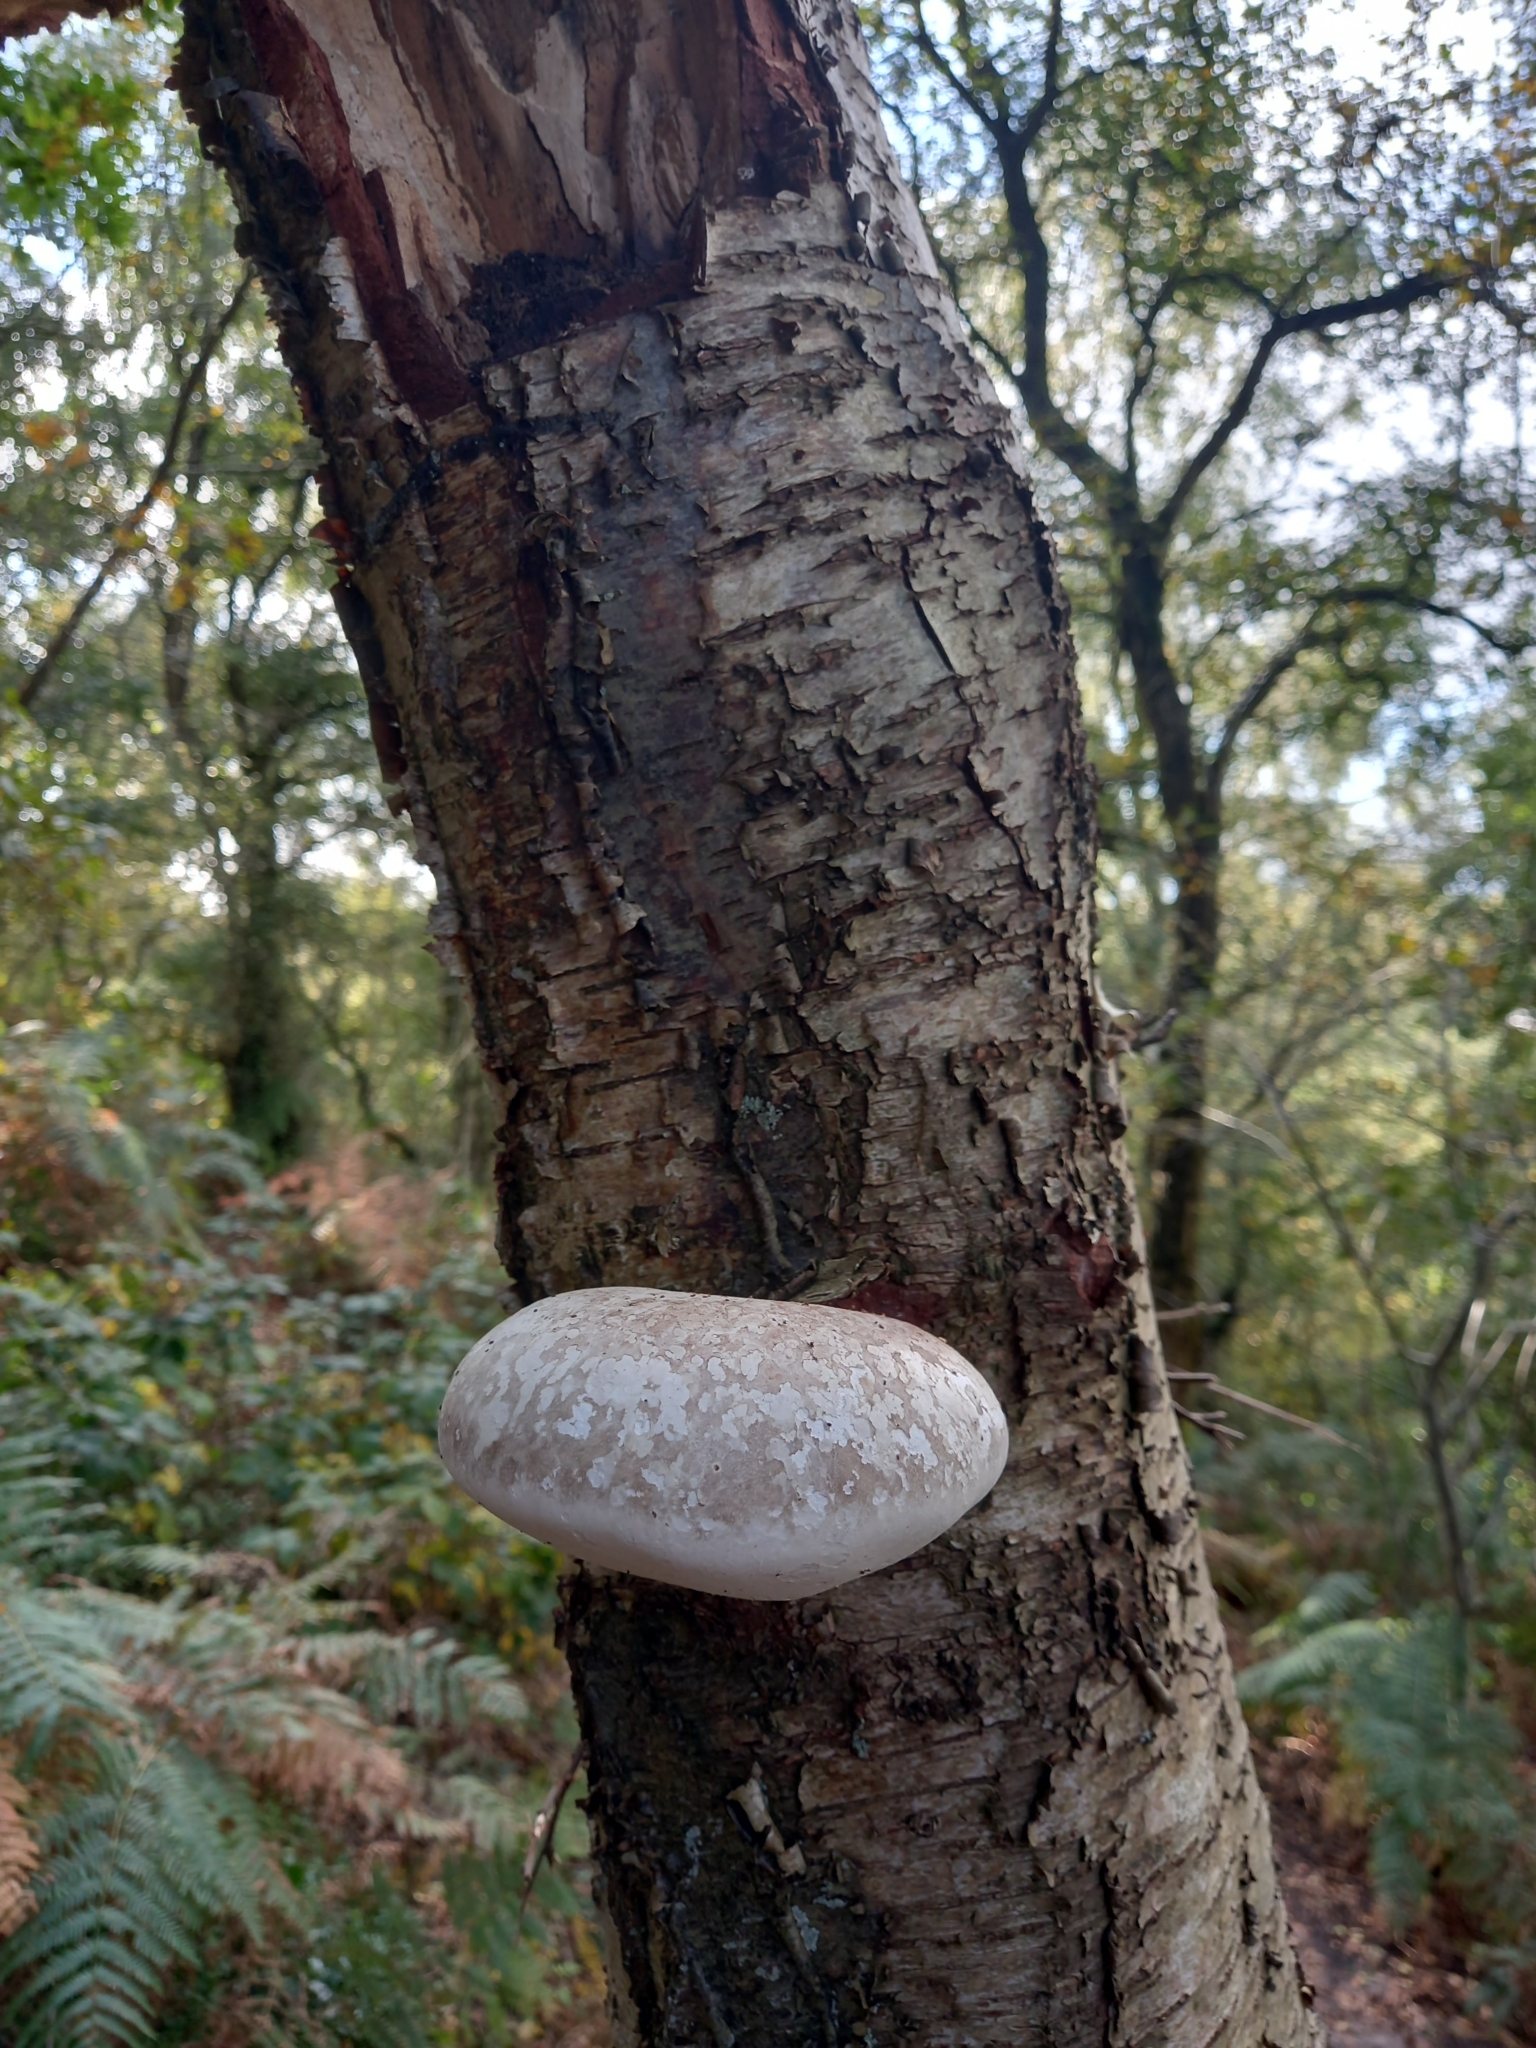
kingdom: Fungi
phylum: Basidiomycota
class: Agaricomycetes
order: Polyporales
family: Fomitopsidaceae
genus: Fomitopsis
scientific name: Fomitopsis betulina
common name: Birch polypore
